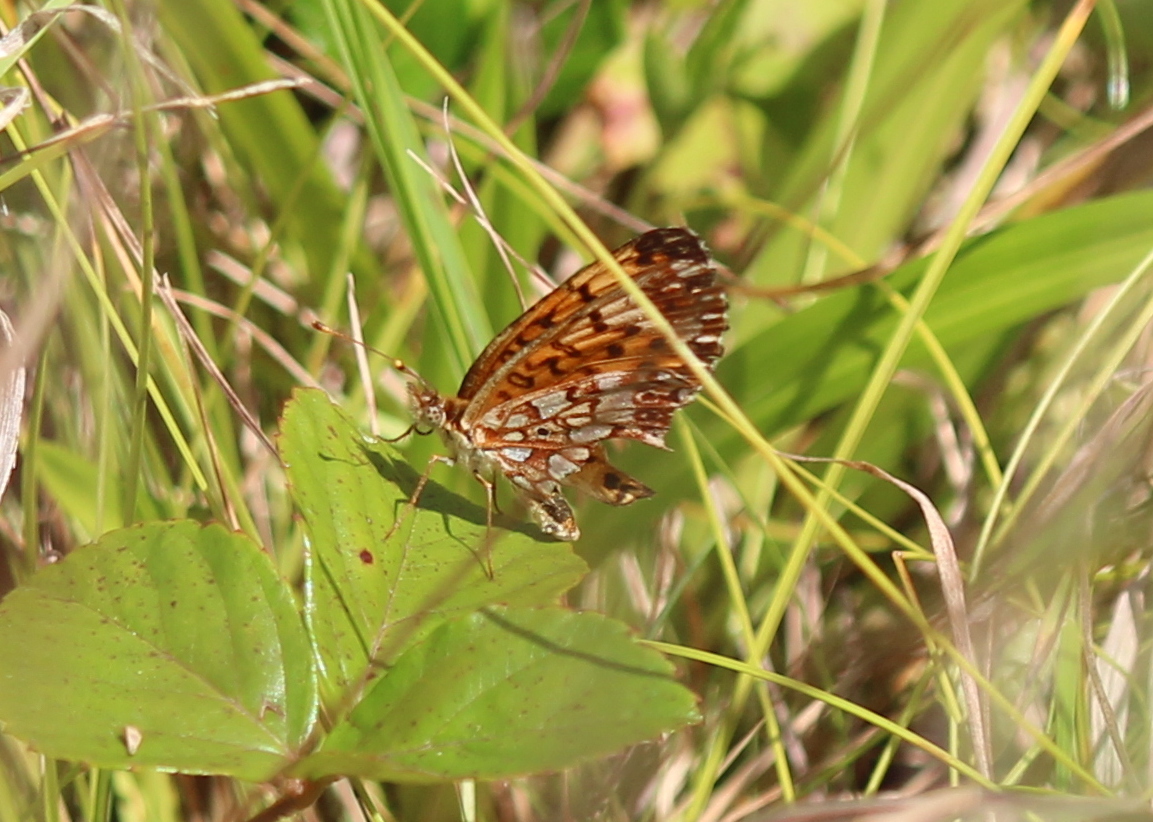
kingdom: Animalia
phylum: Arthropoda
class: Insecta
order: Lepidoptera
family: Nymphalidae
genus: Boloria
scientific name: Boloria
